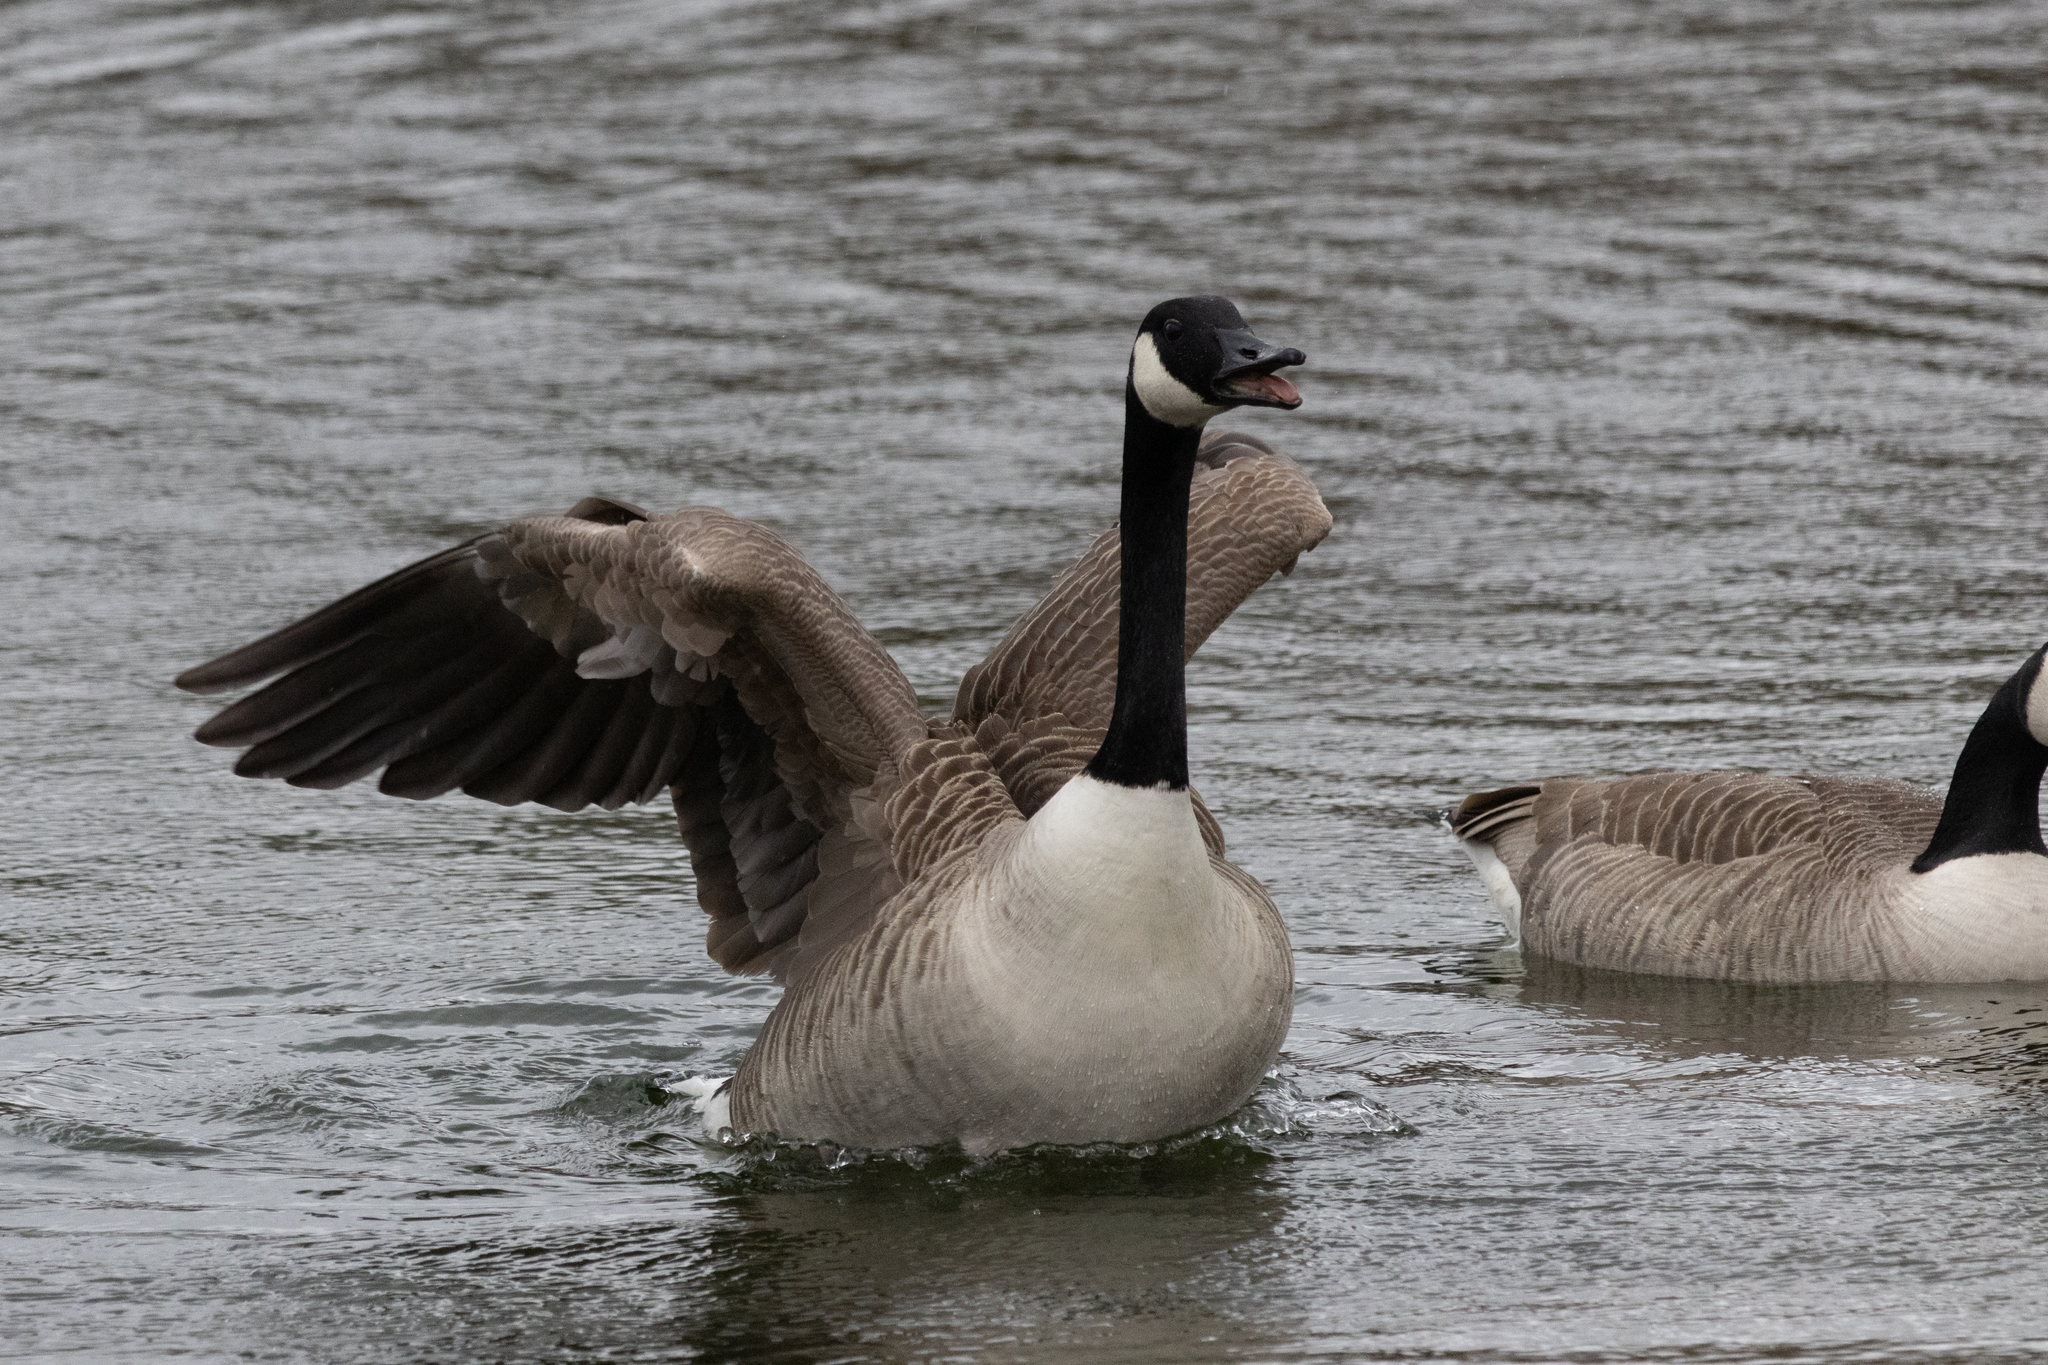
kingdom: Animalia
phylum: Chordata
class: Aves
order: Anseriformes
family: Anatidae
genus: Branta
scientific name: Branta canadensis
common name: Canada goose
